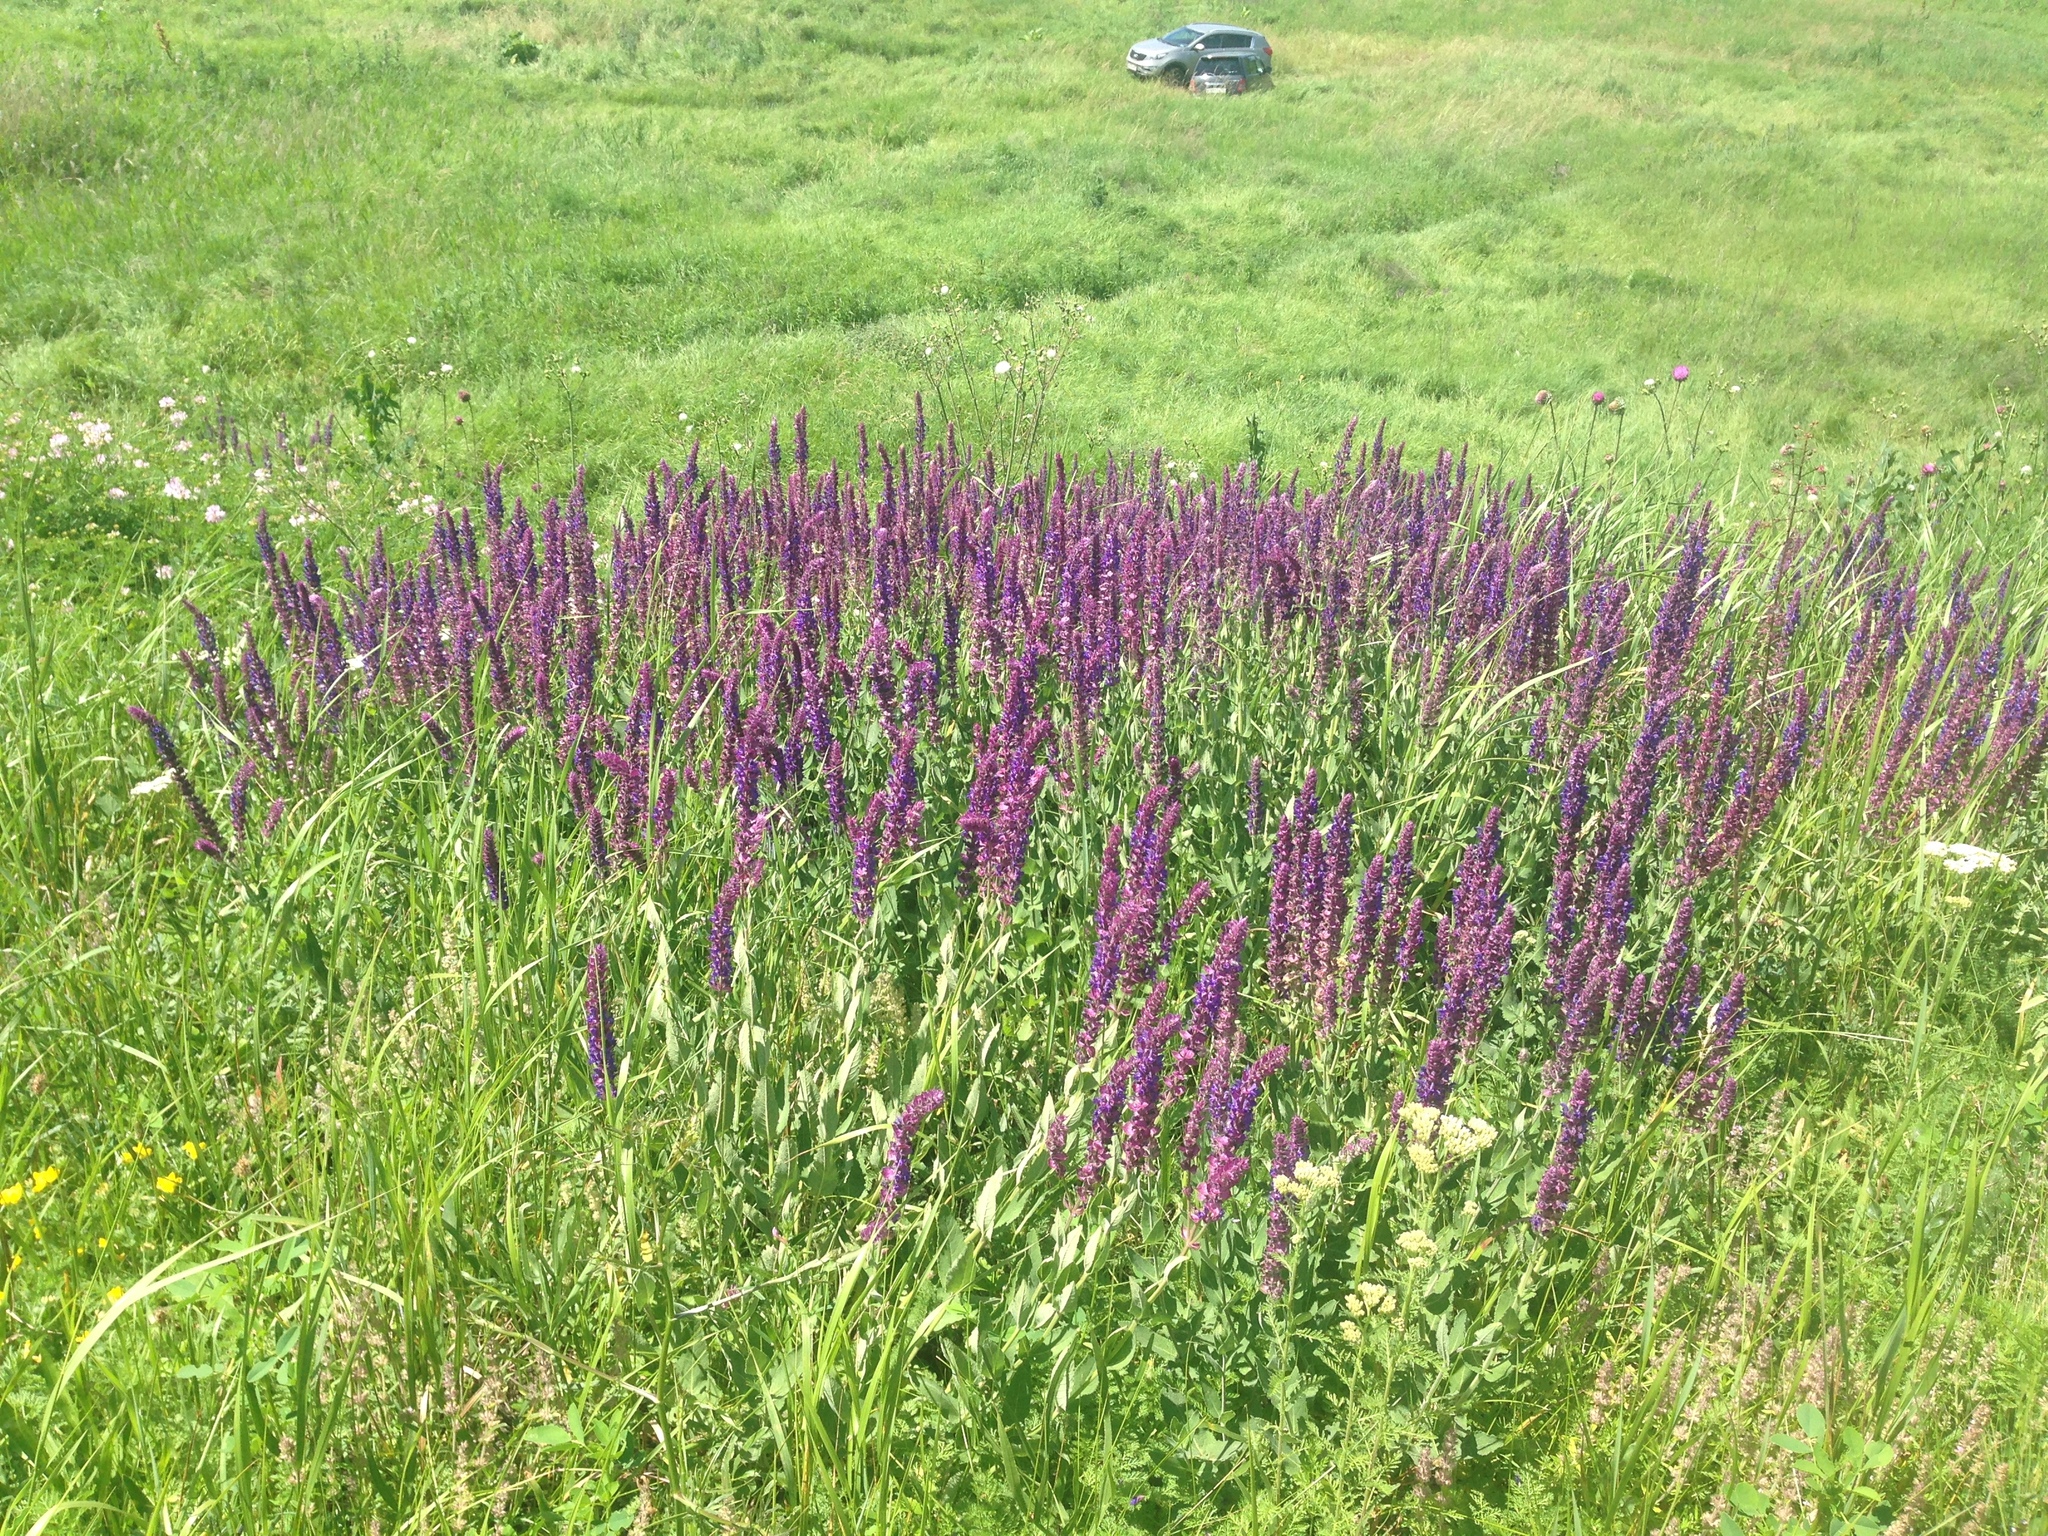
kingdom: Plantae
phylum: Tracheophyta
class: Magnoliopsida
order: Lamiales
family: Lamiaceae
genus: Salvia
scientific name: Salvia nemorosa
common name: Balkan clary
